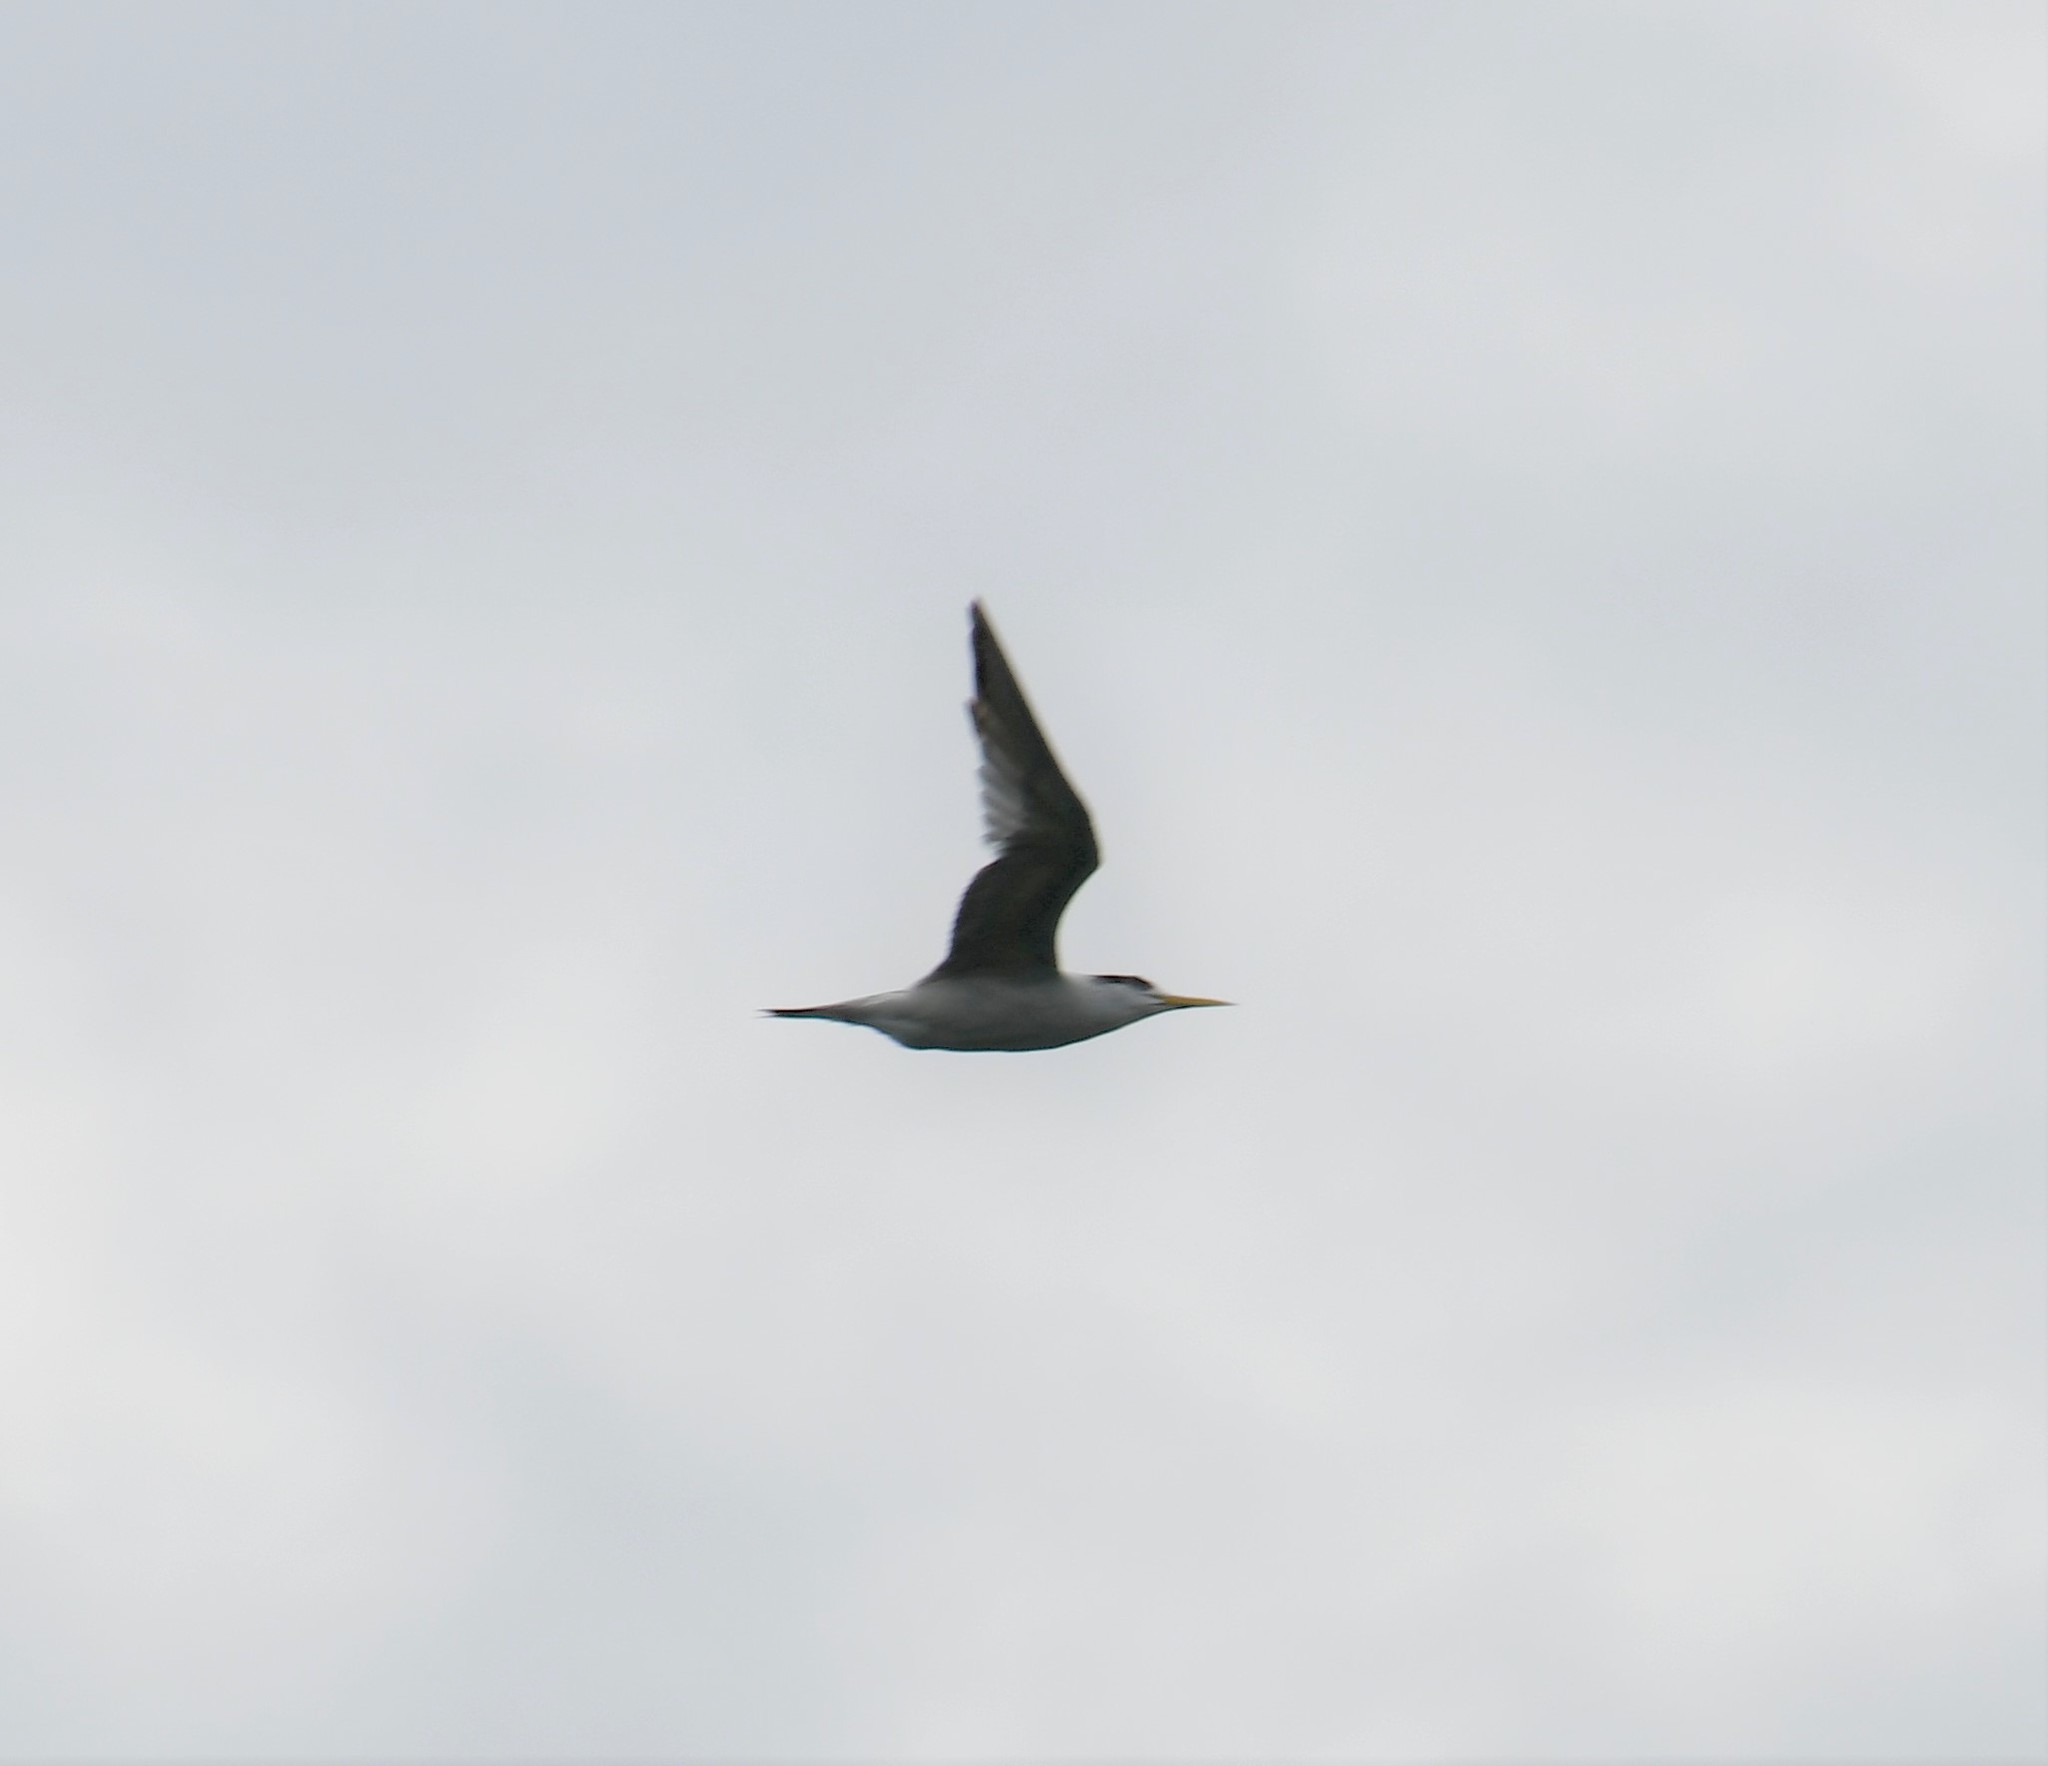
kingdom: Animalia
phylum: Chordata
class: Aves
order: Charadriiformes
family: Laridae
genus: Thalasseus
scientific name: Thalasseus bergii
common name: Greater crested tern
